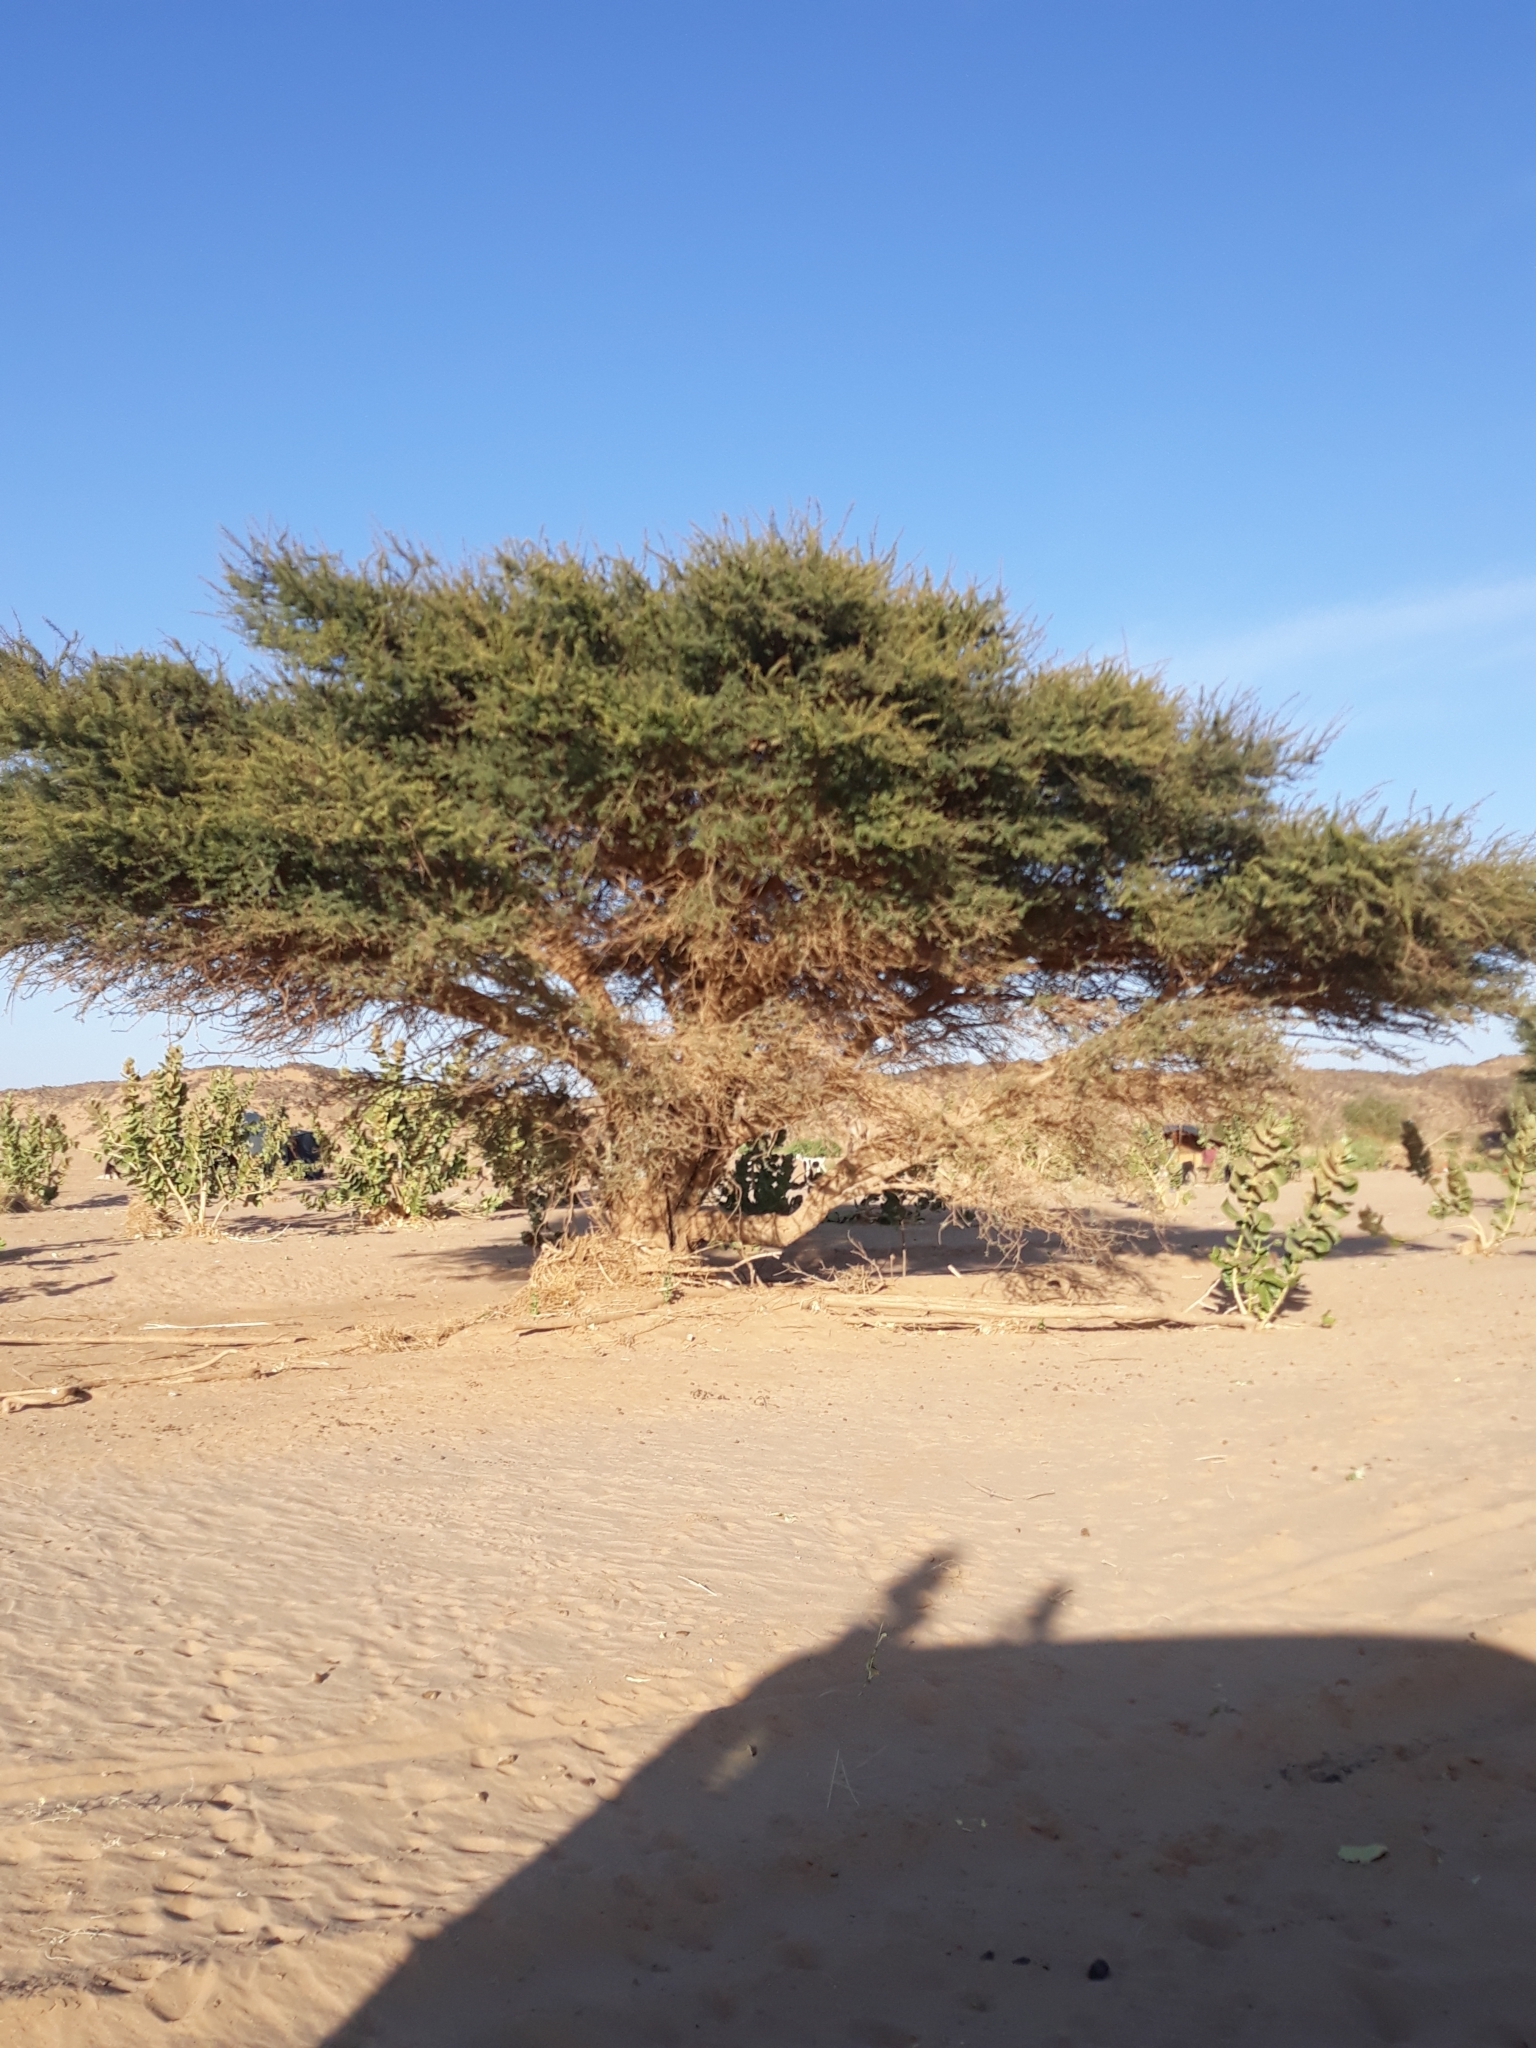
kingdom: Plantae
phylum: Tracheophyta
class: Magnoliopsida
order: Fabales
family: Fabaceae
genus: Vachellia
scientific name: Vachellia tortilis
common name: Umbrella thorn acacia
